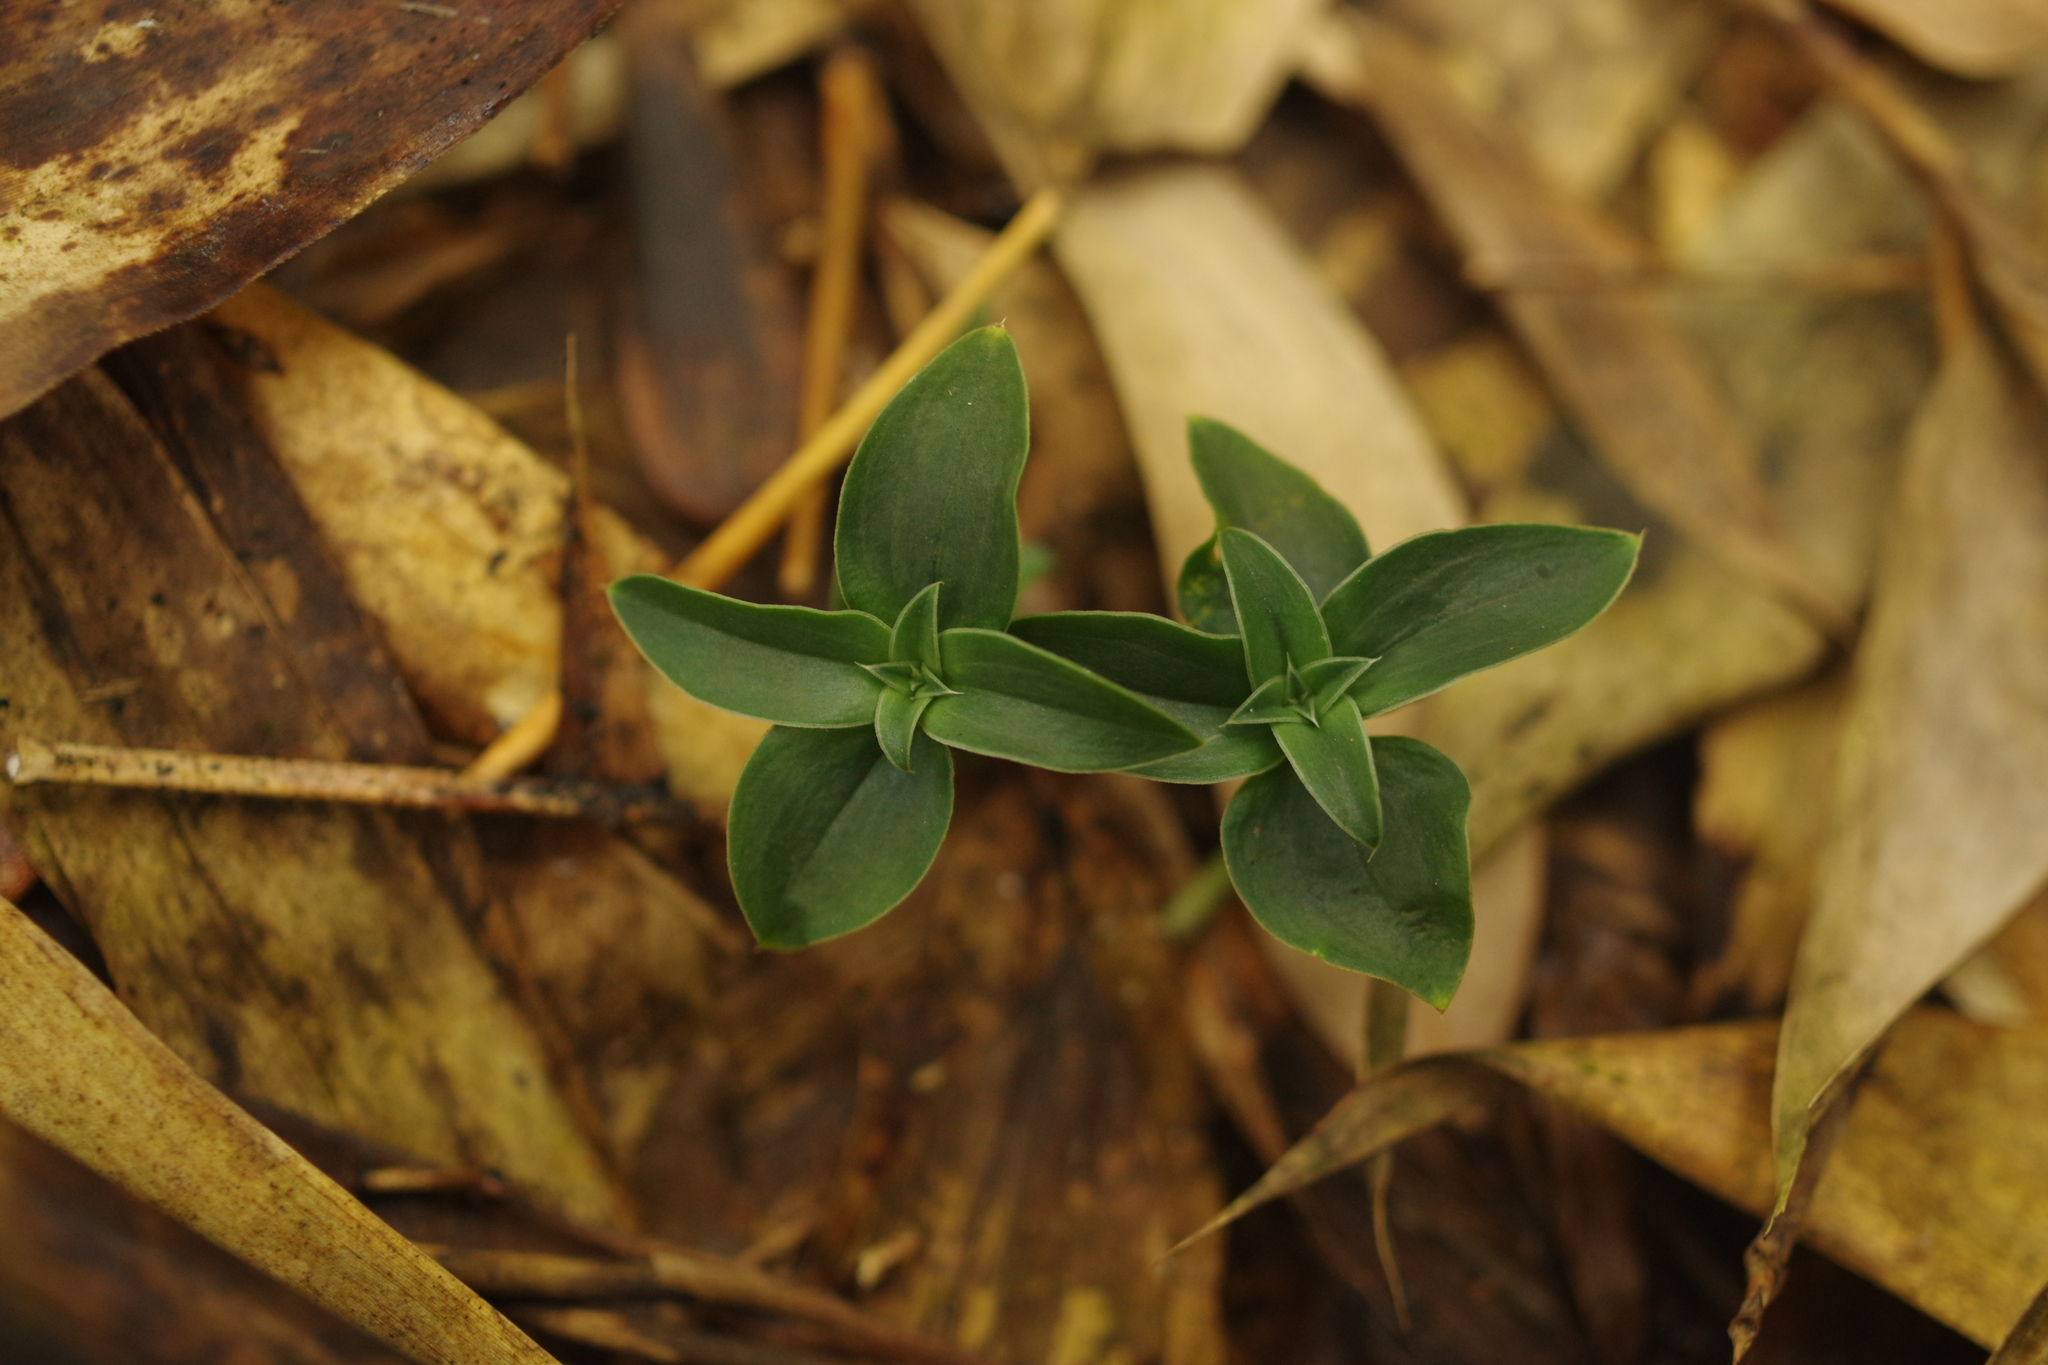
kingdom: Plantae
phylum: Tracheophyta
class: Magnoliopsida
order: Gentianales
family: Gentianaceae
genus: Gentiana
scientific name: Gentiana bambuseti
